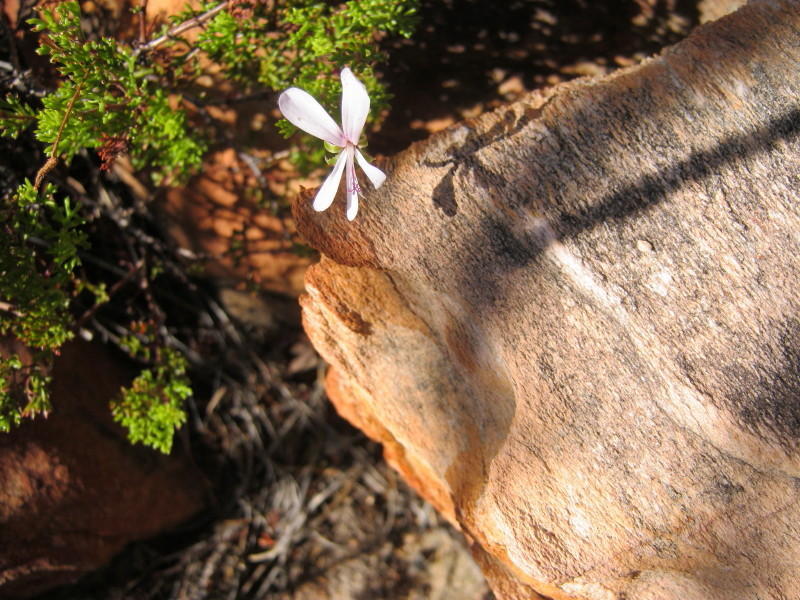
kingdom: Plantae
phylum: Tracheophyta
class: Magnoliopsida
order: Geraniales
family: Geraniaceae
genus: Pelargonium
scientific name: Pelargonium fruticosum
